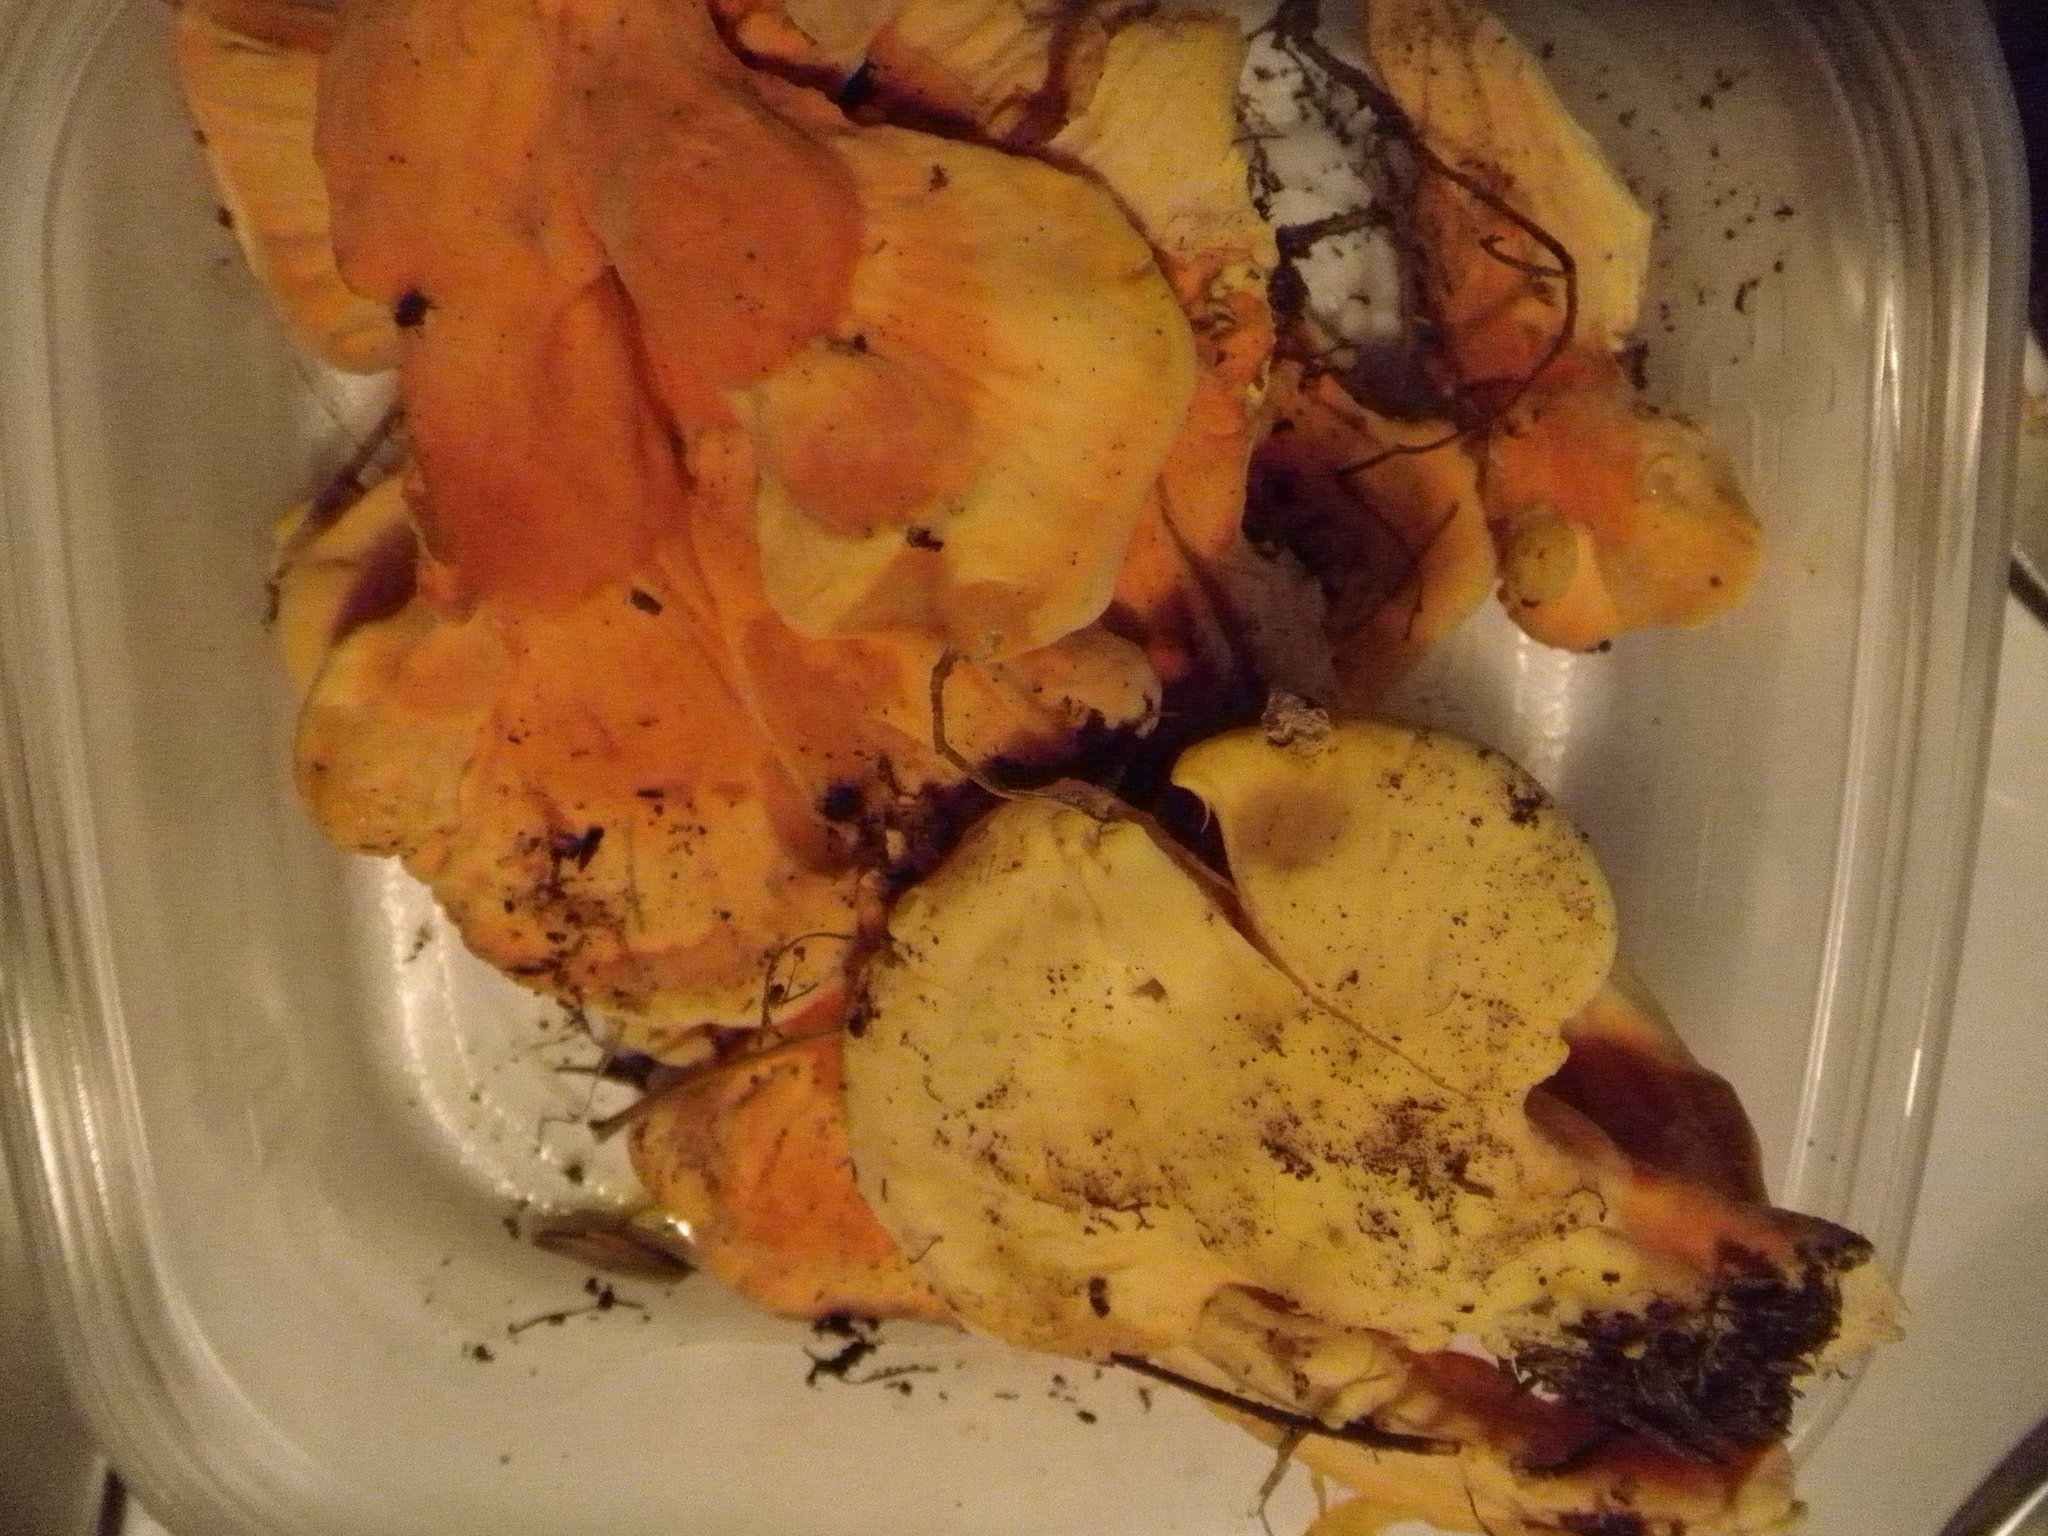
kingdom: Fungi
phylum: Basidiomycota
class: Agaricomycetes
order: Polyporales
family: Laetiporaceae
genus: Laetiporus
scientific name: Laetiporus sulphureus
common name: Chicken of the woods
